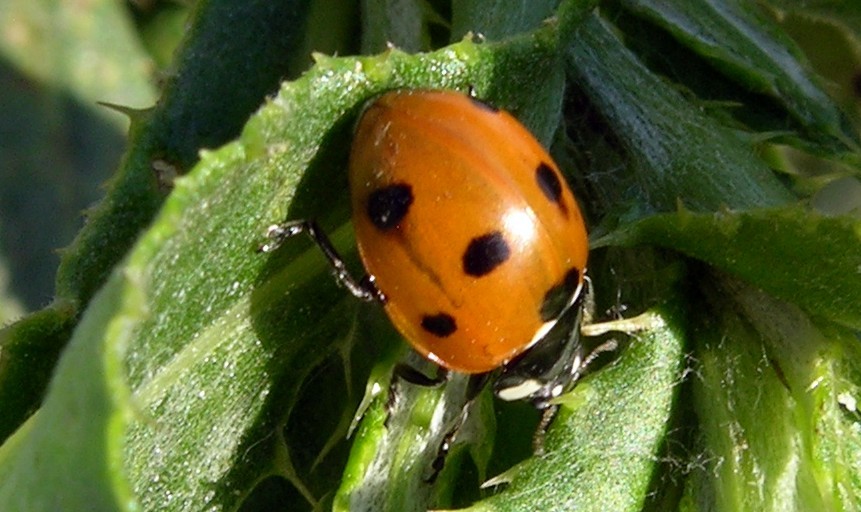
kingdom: Animalia
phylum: Arthropoda
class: Insecta
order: Coleoptera
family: Coccinellidae
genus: Coccinella
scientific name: Coccinella septempunctata
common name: Sevenspotted lady beetle
